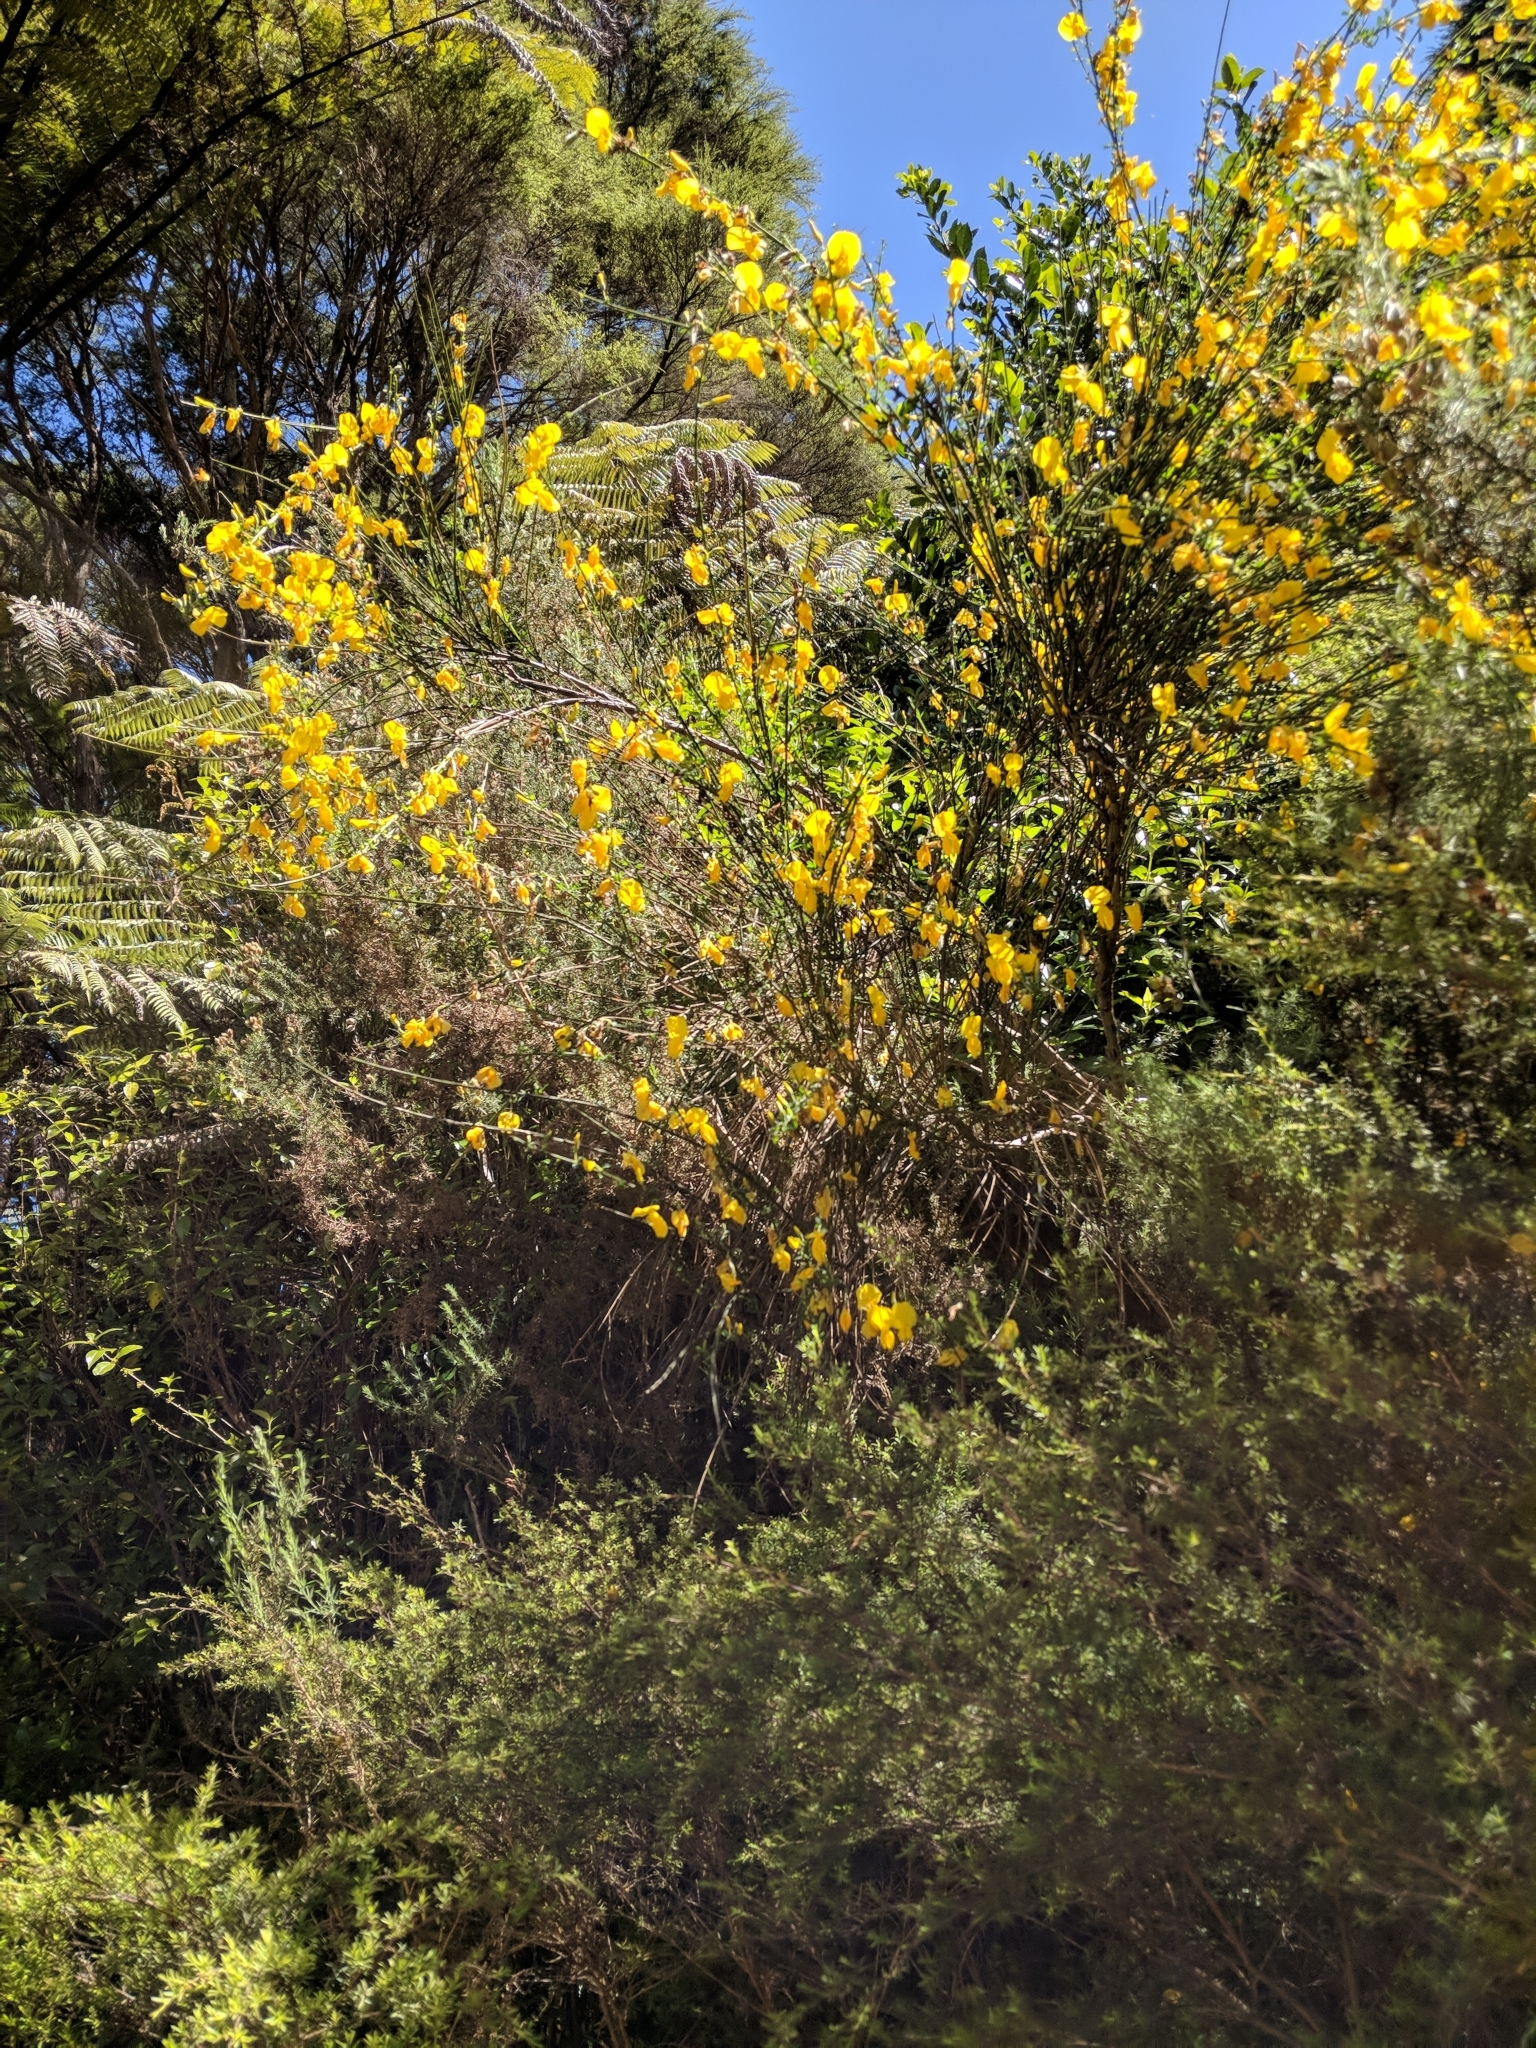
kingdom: Plantae
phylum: Tracheophyta
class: Magnoliopsida
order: Fabales
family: Fabaceae
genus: Ulex
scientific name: Ulex europaeus
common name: Common gorse
